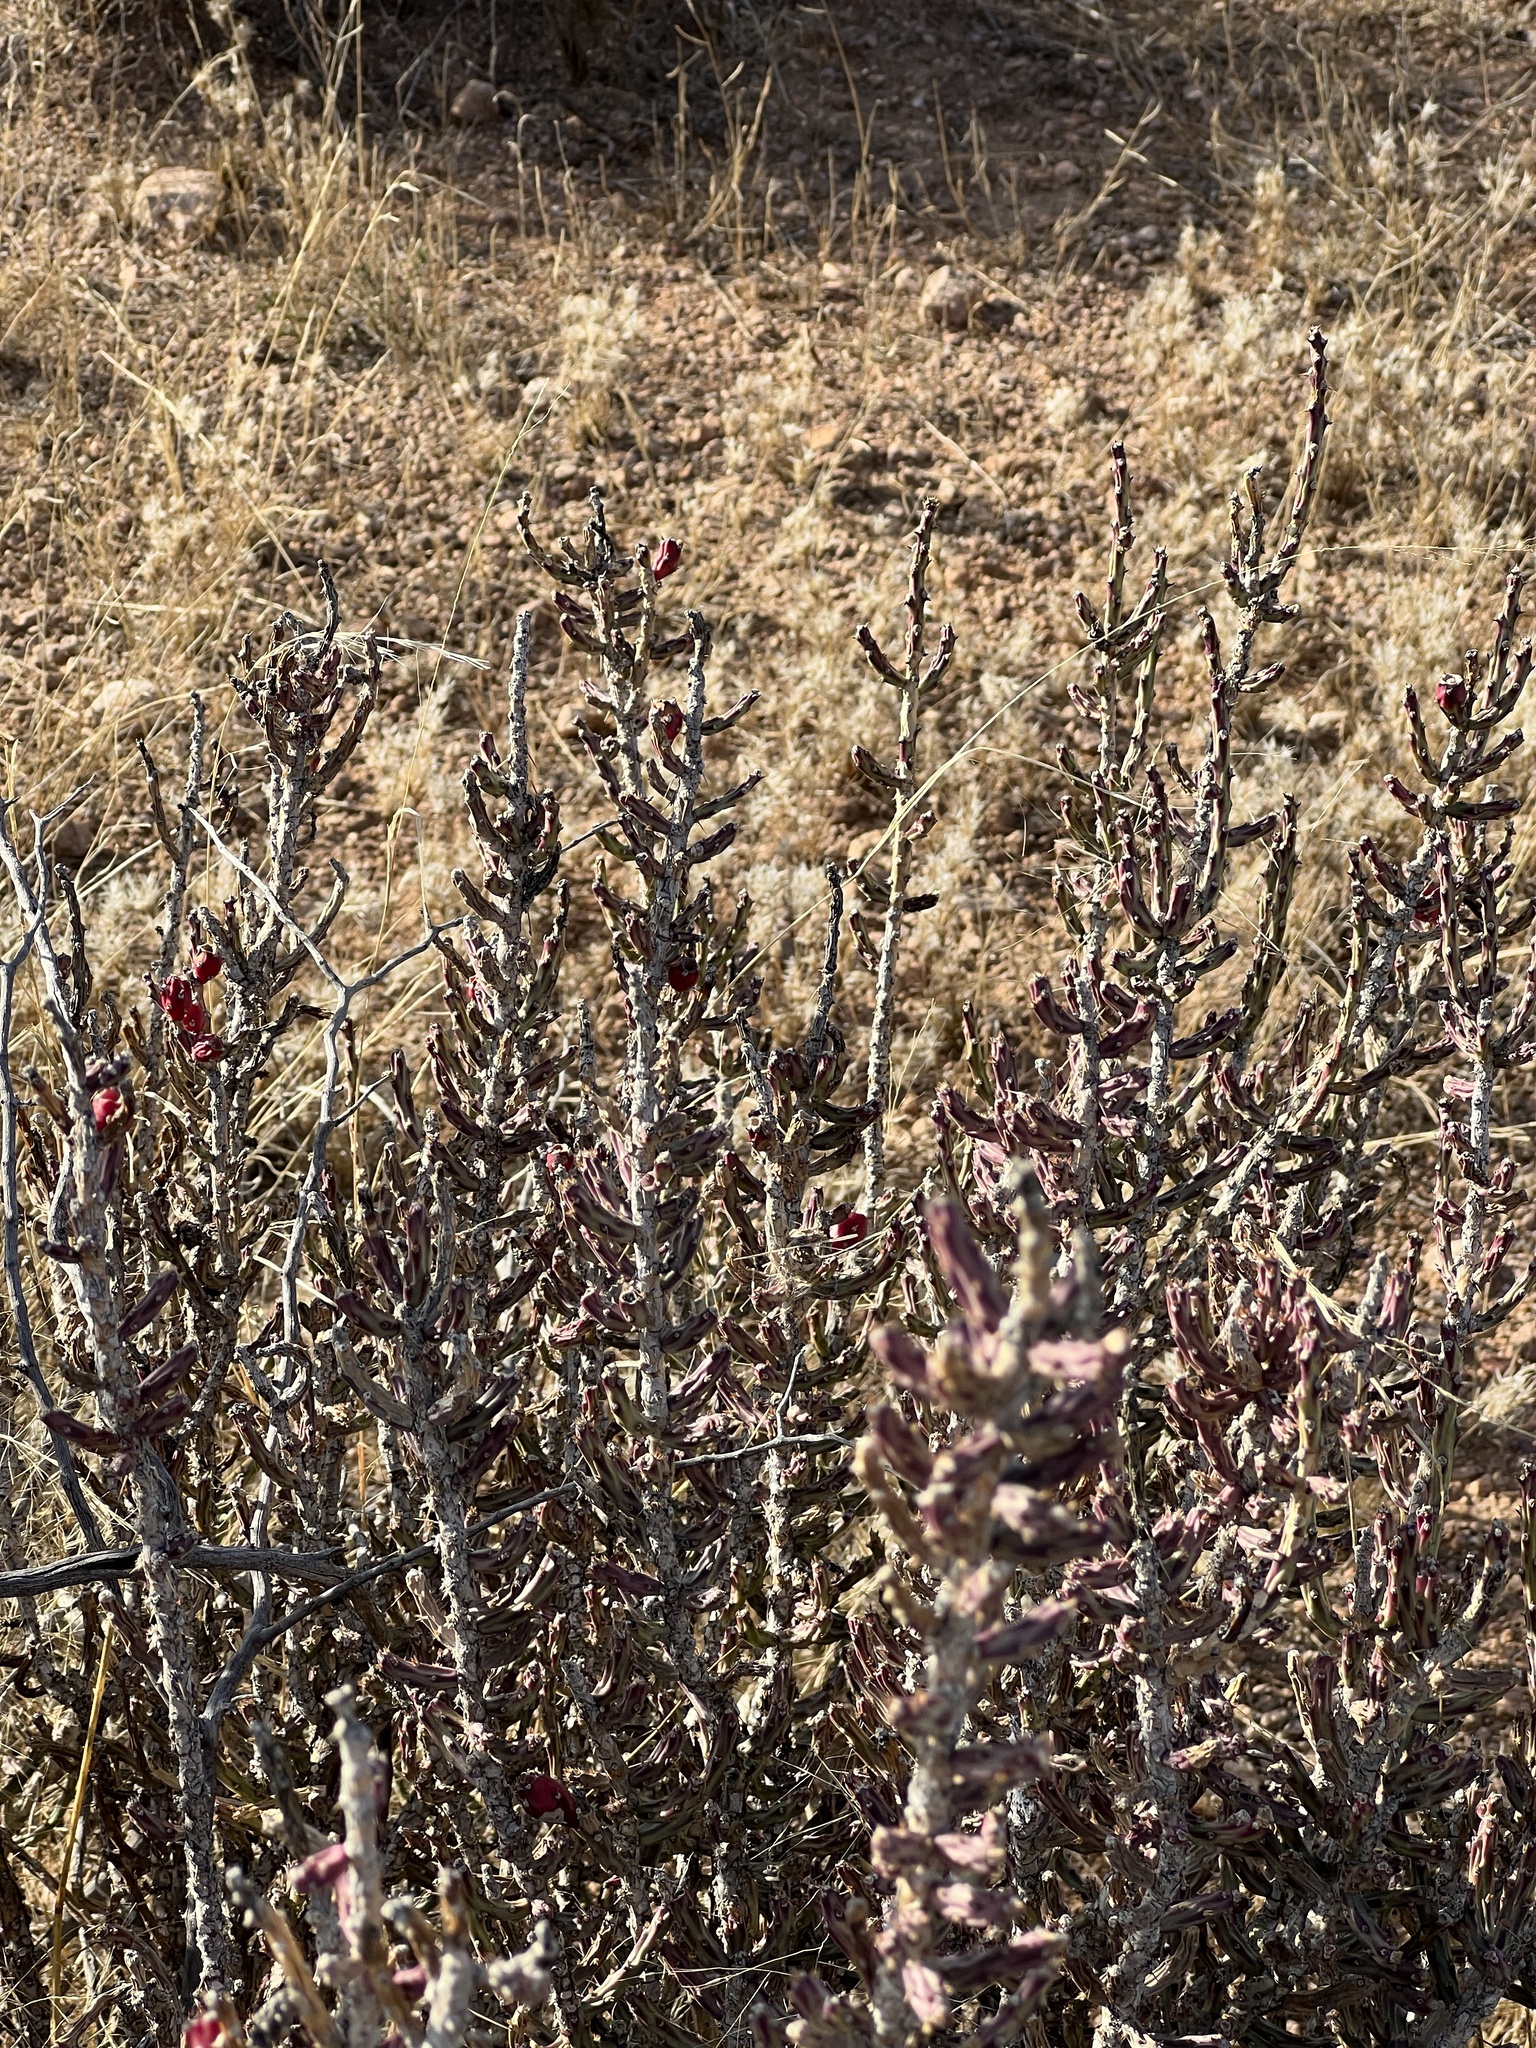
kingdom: Plantae
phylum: Tracheophyta
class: Magnoliopsida
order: Caryophyllales
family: Cactaceae
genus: Cylindropuntia
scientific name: Cylindropuntia leptocaulis
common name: Christmas cactus
